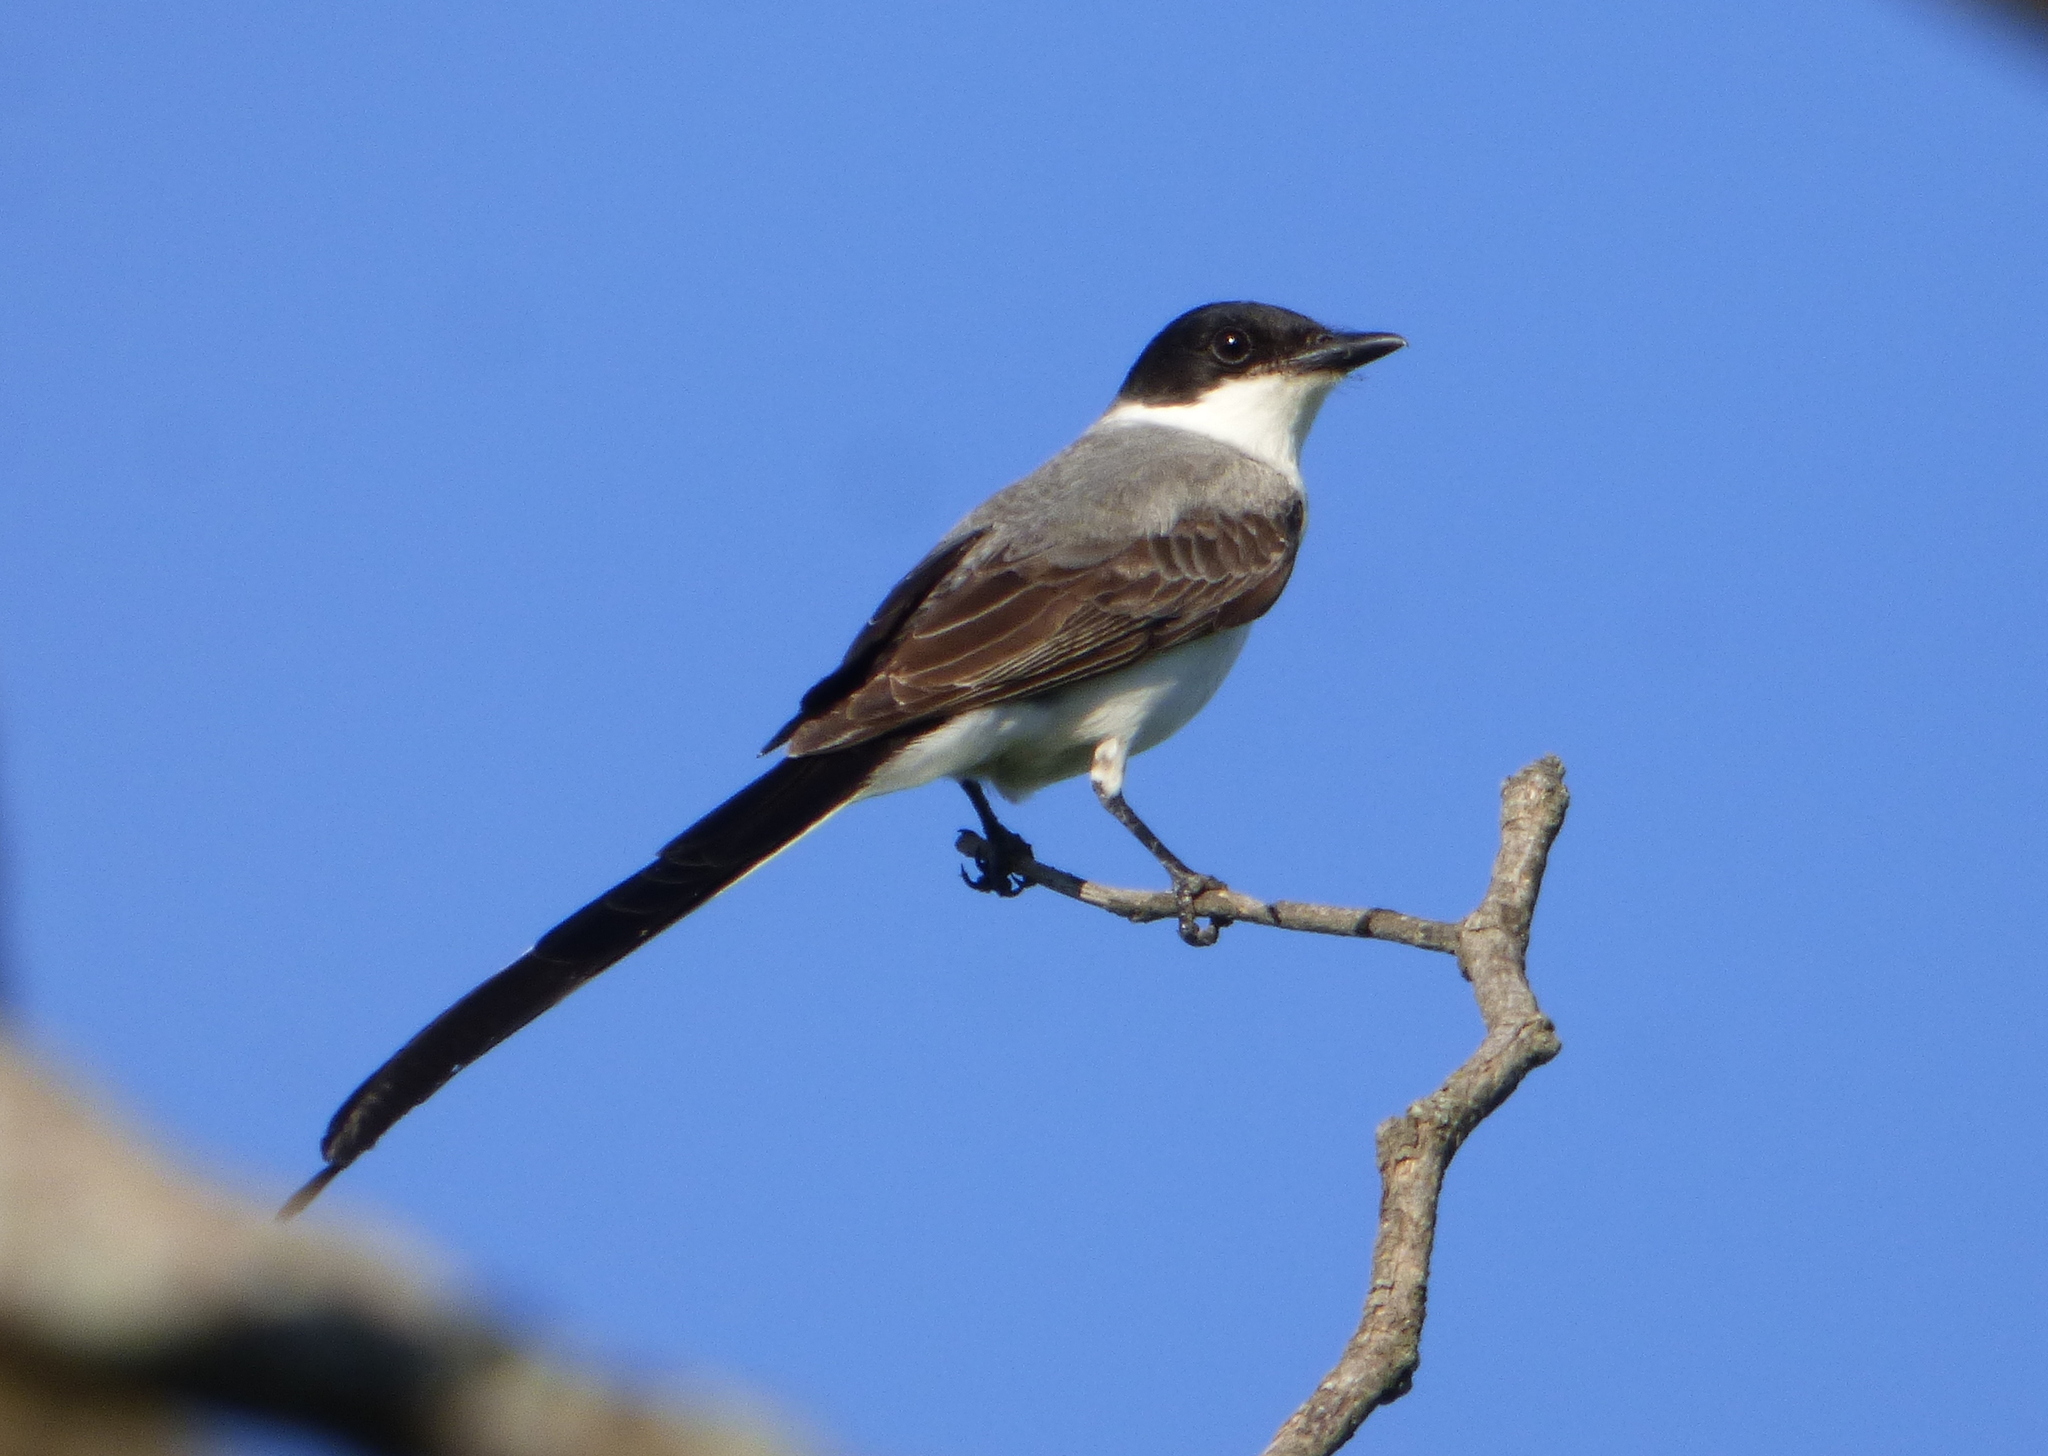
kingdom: Animalia
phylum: Chordata
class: Aves
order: Passeriformes
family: Tyrannidae
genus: Tyrannus
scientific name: Tyrannus savana
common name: Fork-tailed flycatcher
